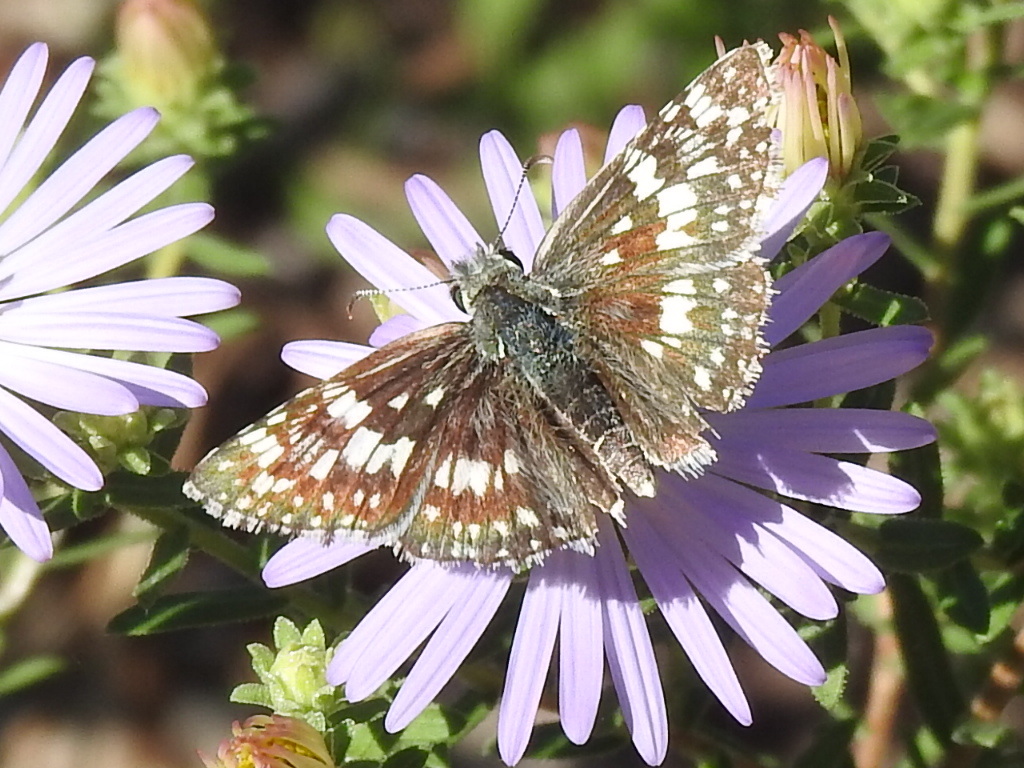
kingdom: Animalia
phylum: Arthropoda
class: Insecta
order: Lepidoptera
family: Hesperiidae
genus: Burnsius
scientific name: Burnsius
